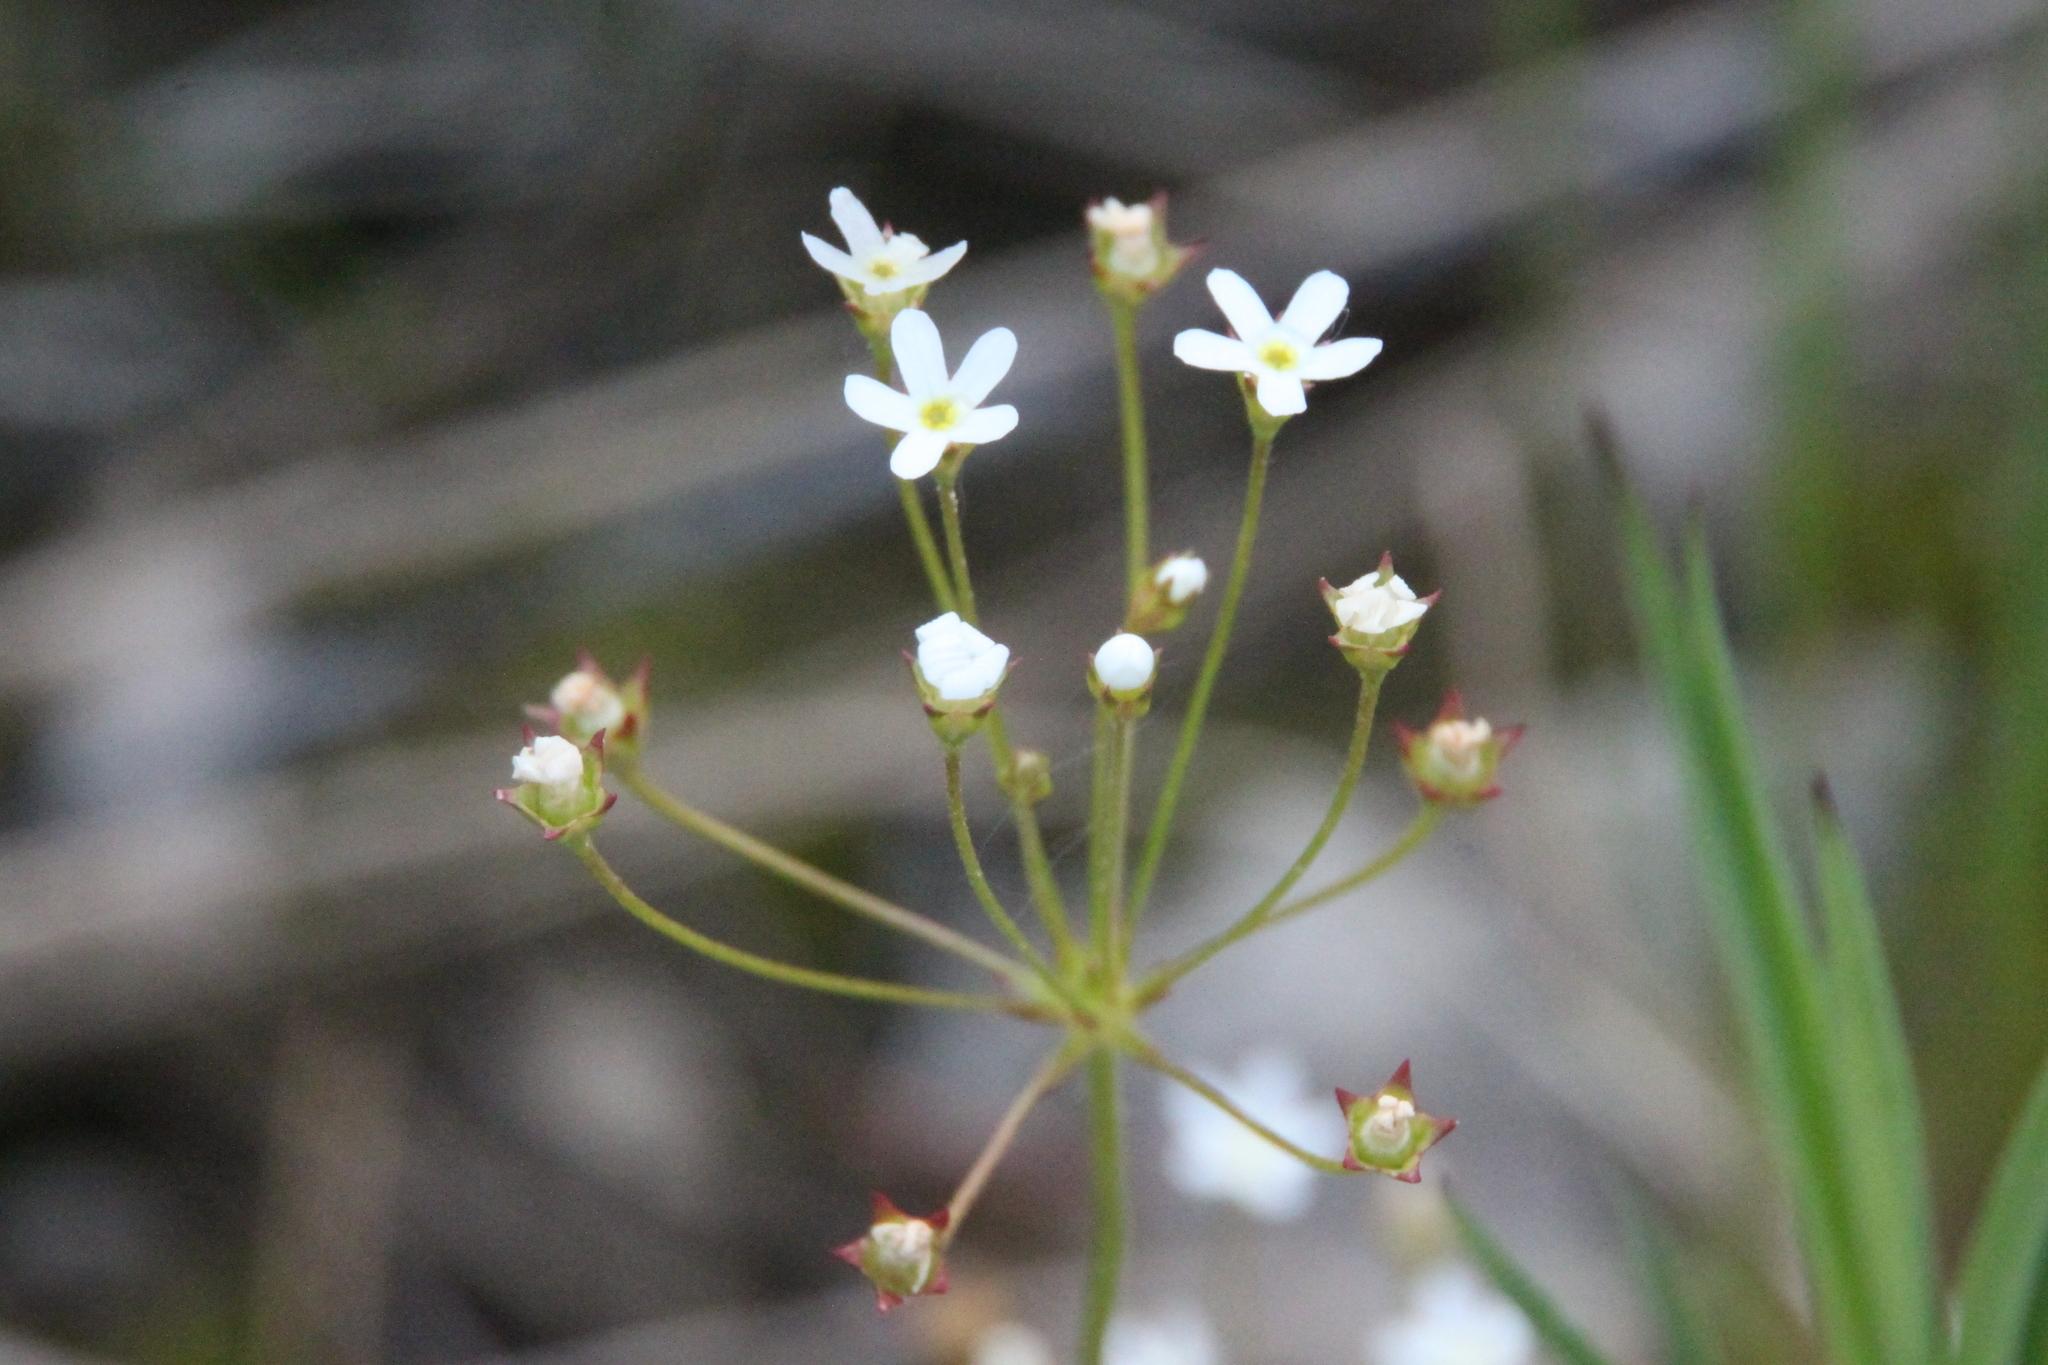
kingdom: Plantae
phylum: Tracheophyta
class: Magnoliopsida
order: Ericales
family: Primulaceae
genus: Androsace
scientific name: Androsace septentrionalis
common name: Hairy northern fairy-candelabra
